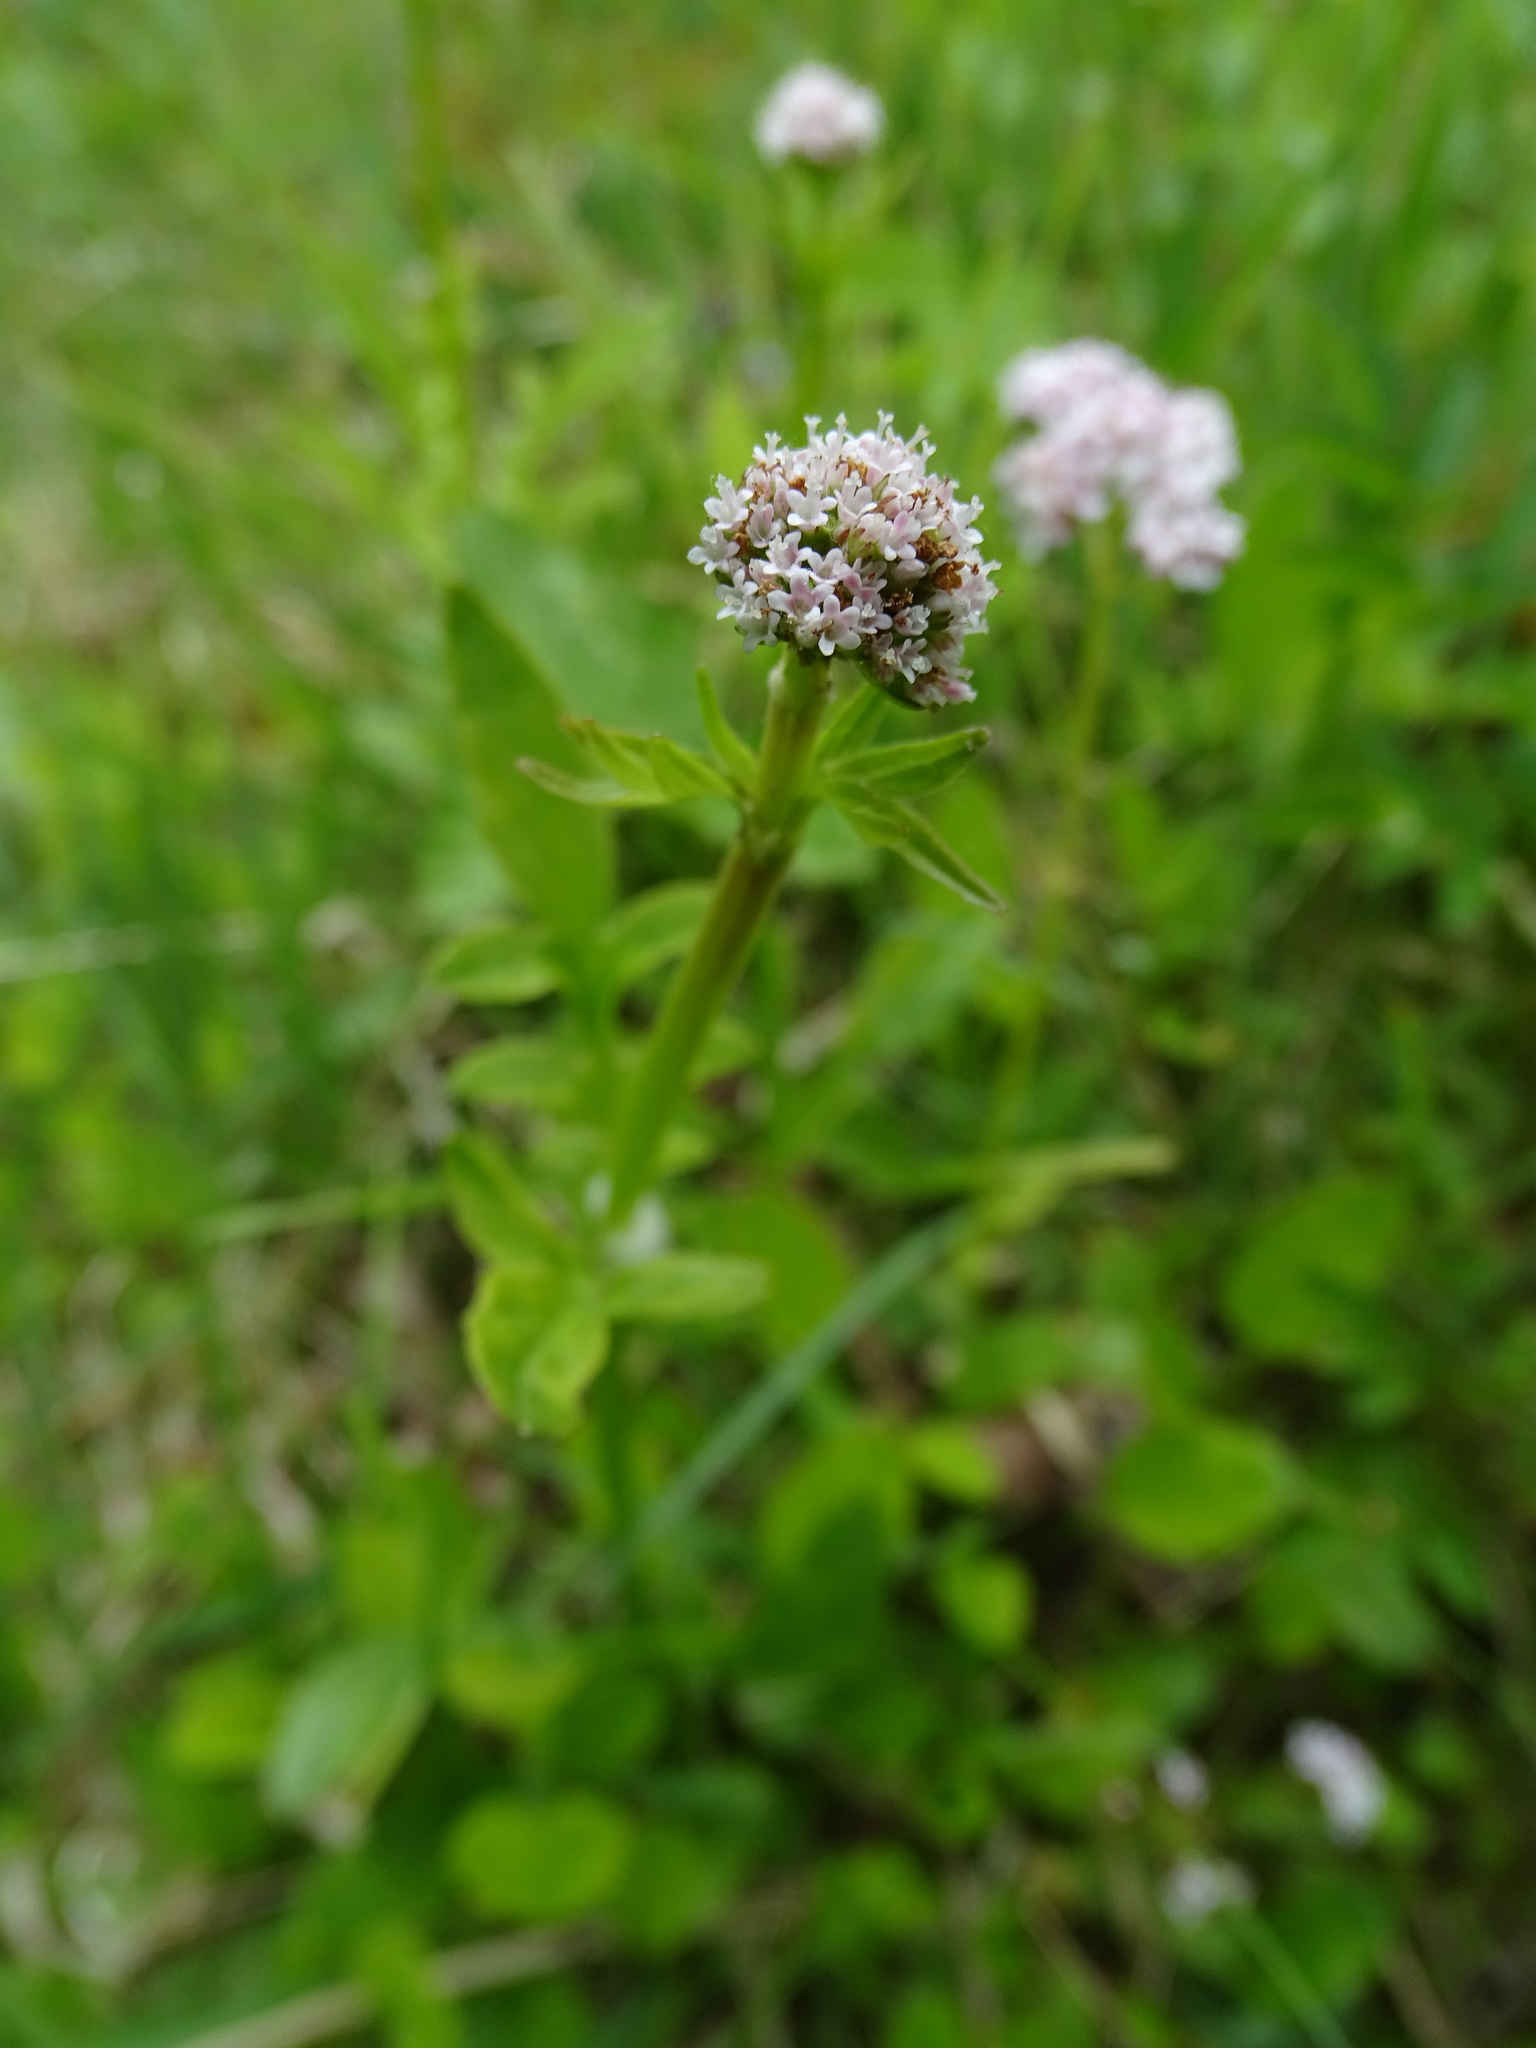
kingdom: Plantae
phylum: Tracheophyta
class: Magnoliopsida
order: Dipsacales
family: Caprifoliaceae
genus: Valeriana
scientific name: Valeriana dioica
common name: Marsh valerian
